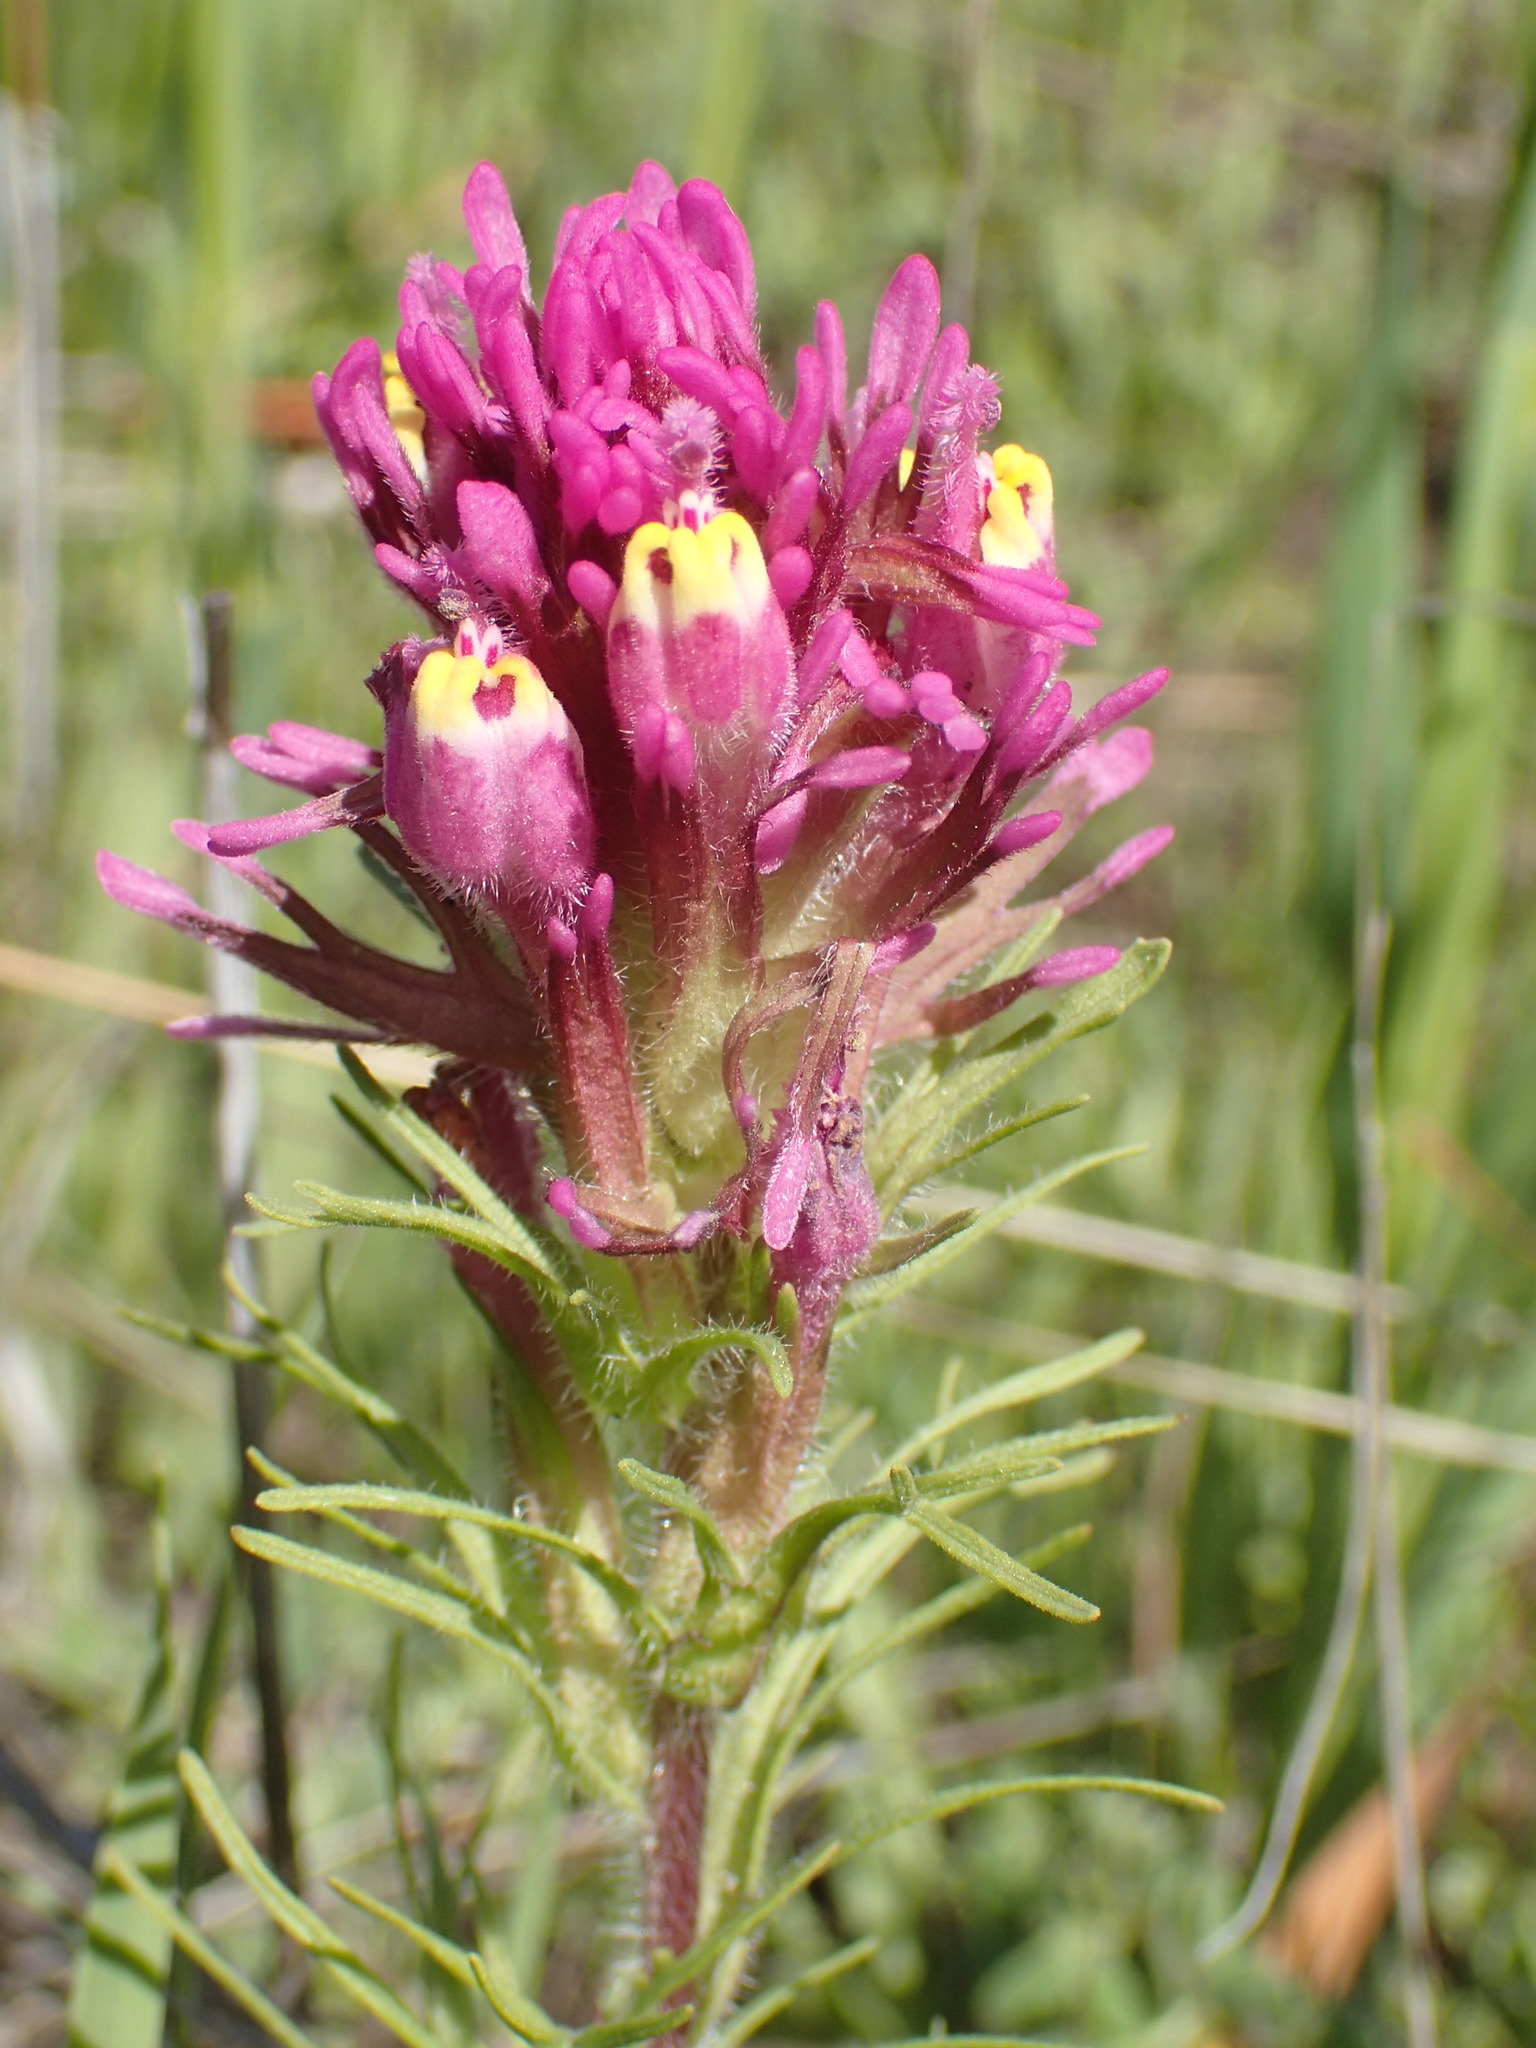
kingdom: Plantae
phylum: Tracheophyta
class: Magnoliopsida
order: Lamiales
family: Orobanchaceae
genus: Castilleja
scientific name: Castilleja exserta
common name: Purple owl-clover
